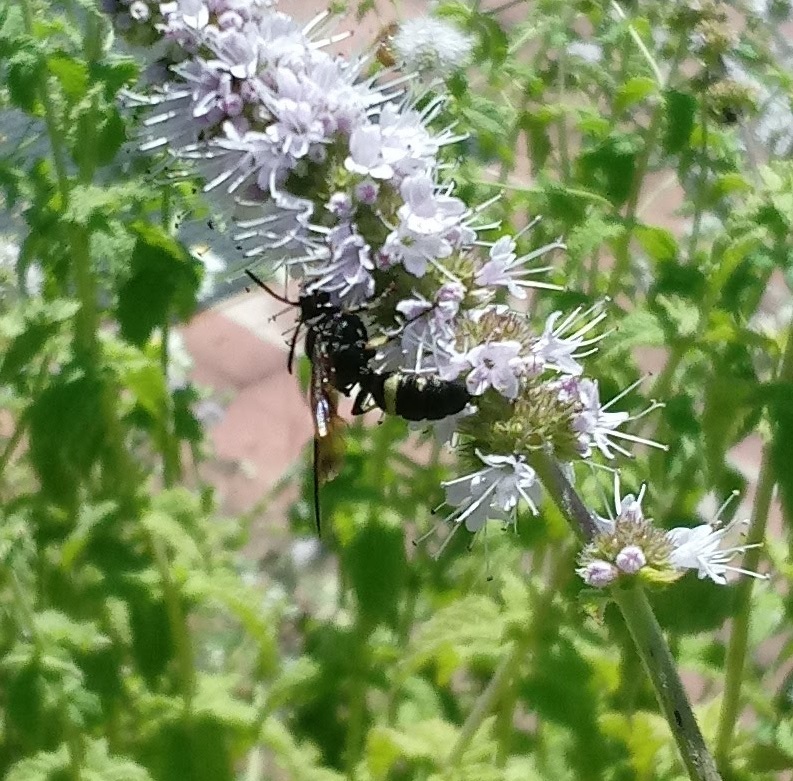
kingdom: Animalia
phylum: Arthropoda
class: Insecta
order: Hymenoptera
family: Crabronidae
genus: Cerceris
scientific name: Cerceris fumipennis
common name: Smokey-winged beetle bandit wasp
